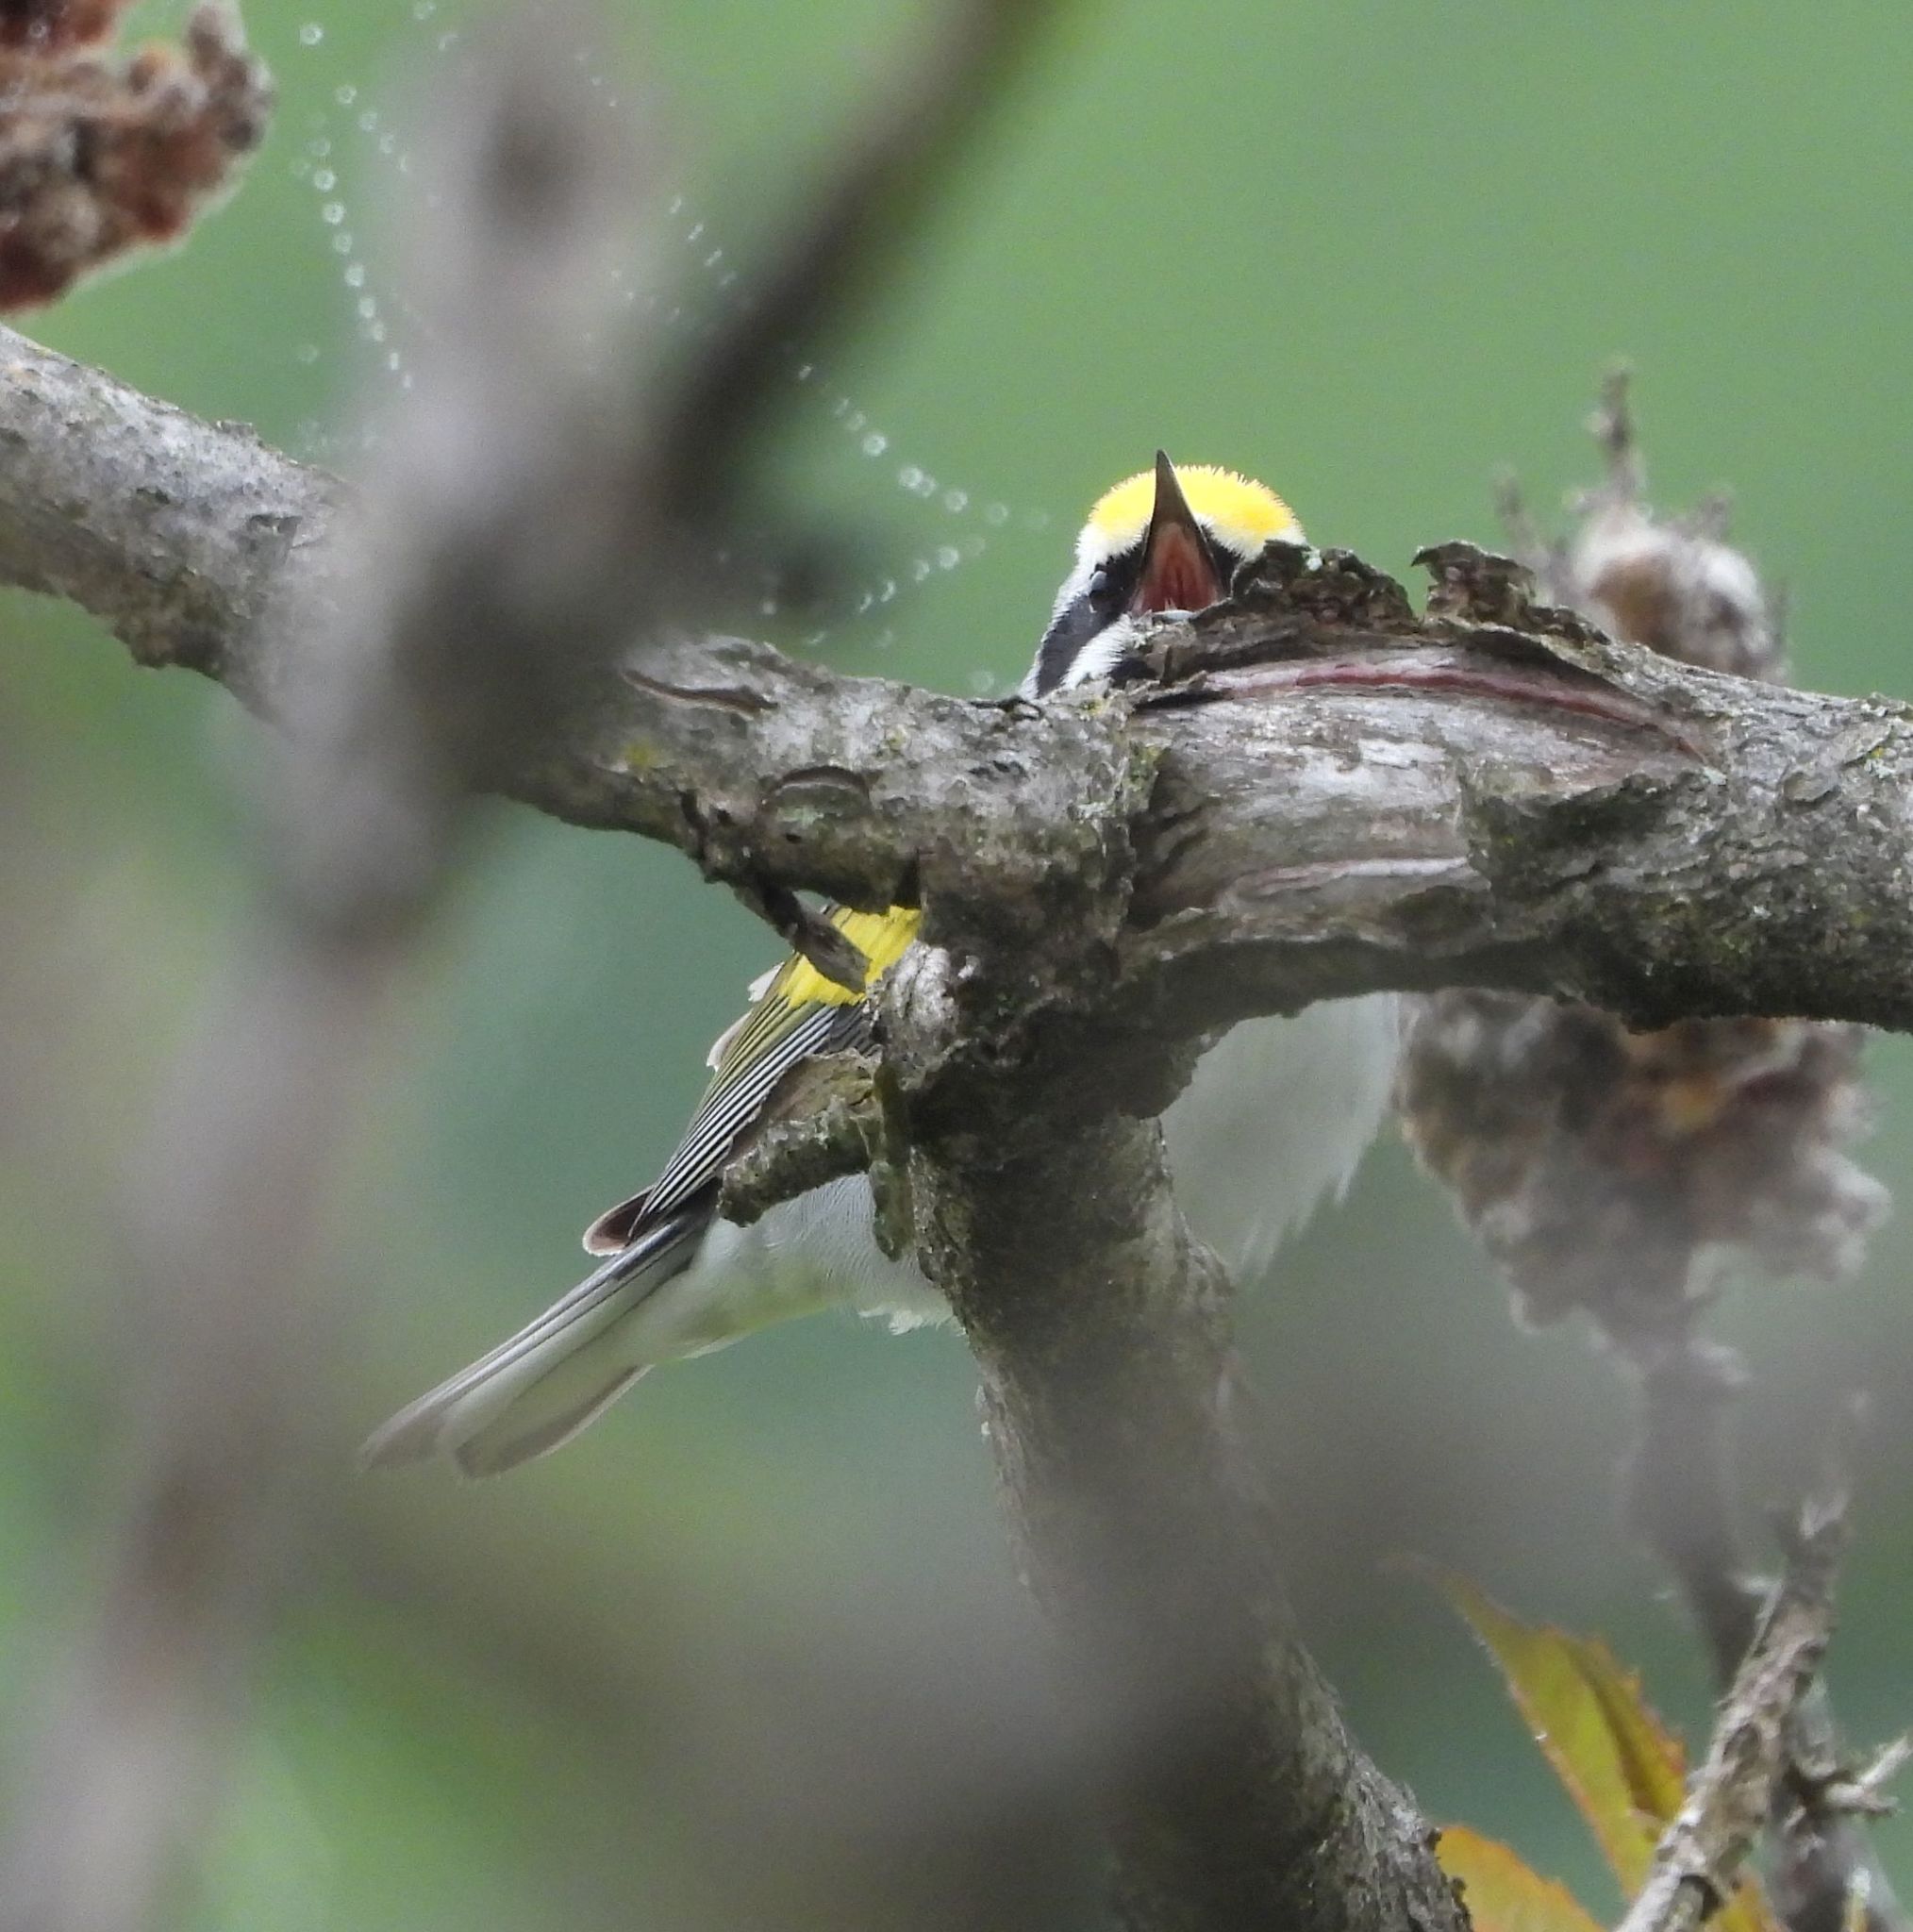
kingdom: Animalia
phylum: Chordata
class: Aves
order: Passeriformes
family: Parulidae
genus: Vermivora
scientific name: Vermivora chrysoptera
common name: Golden-winged warbler
